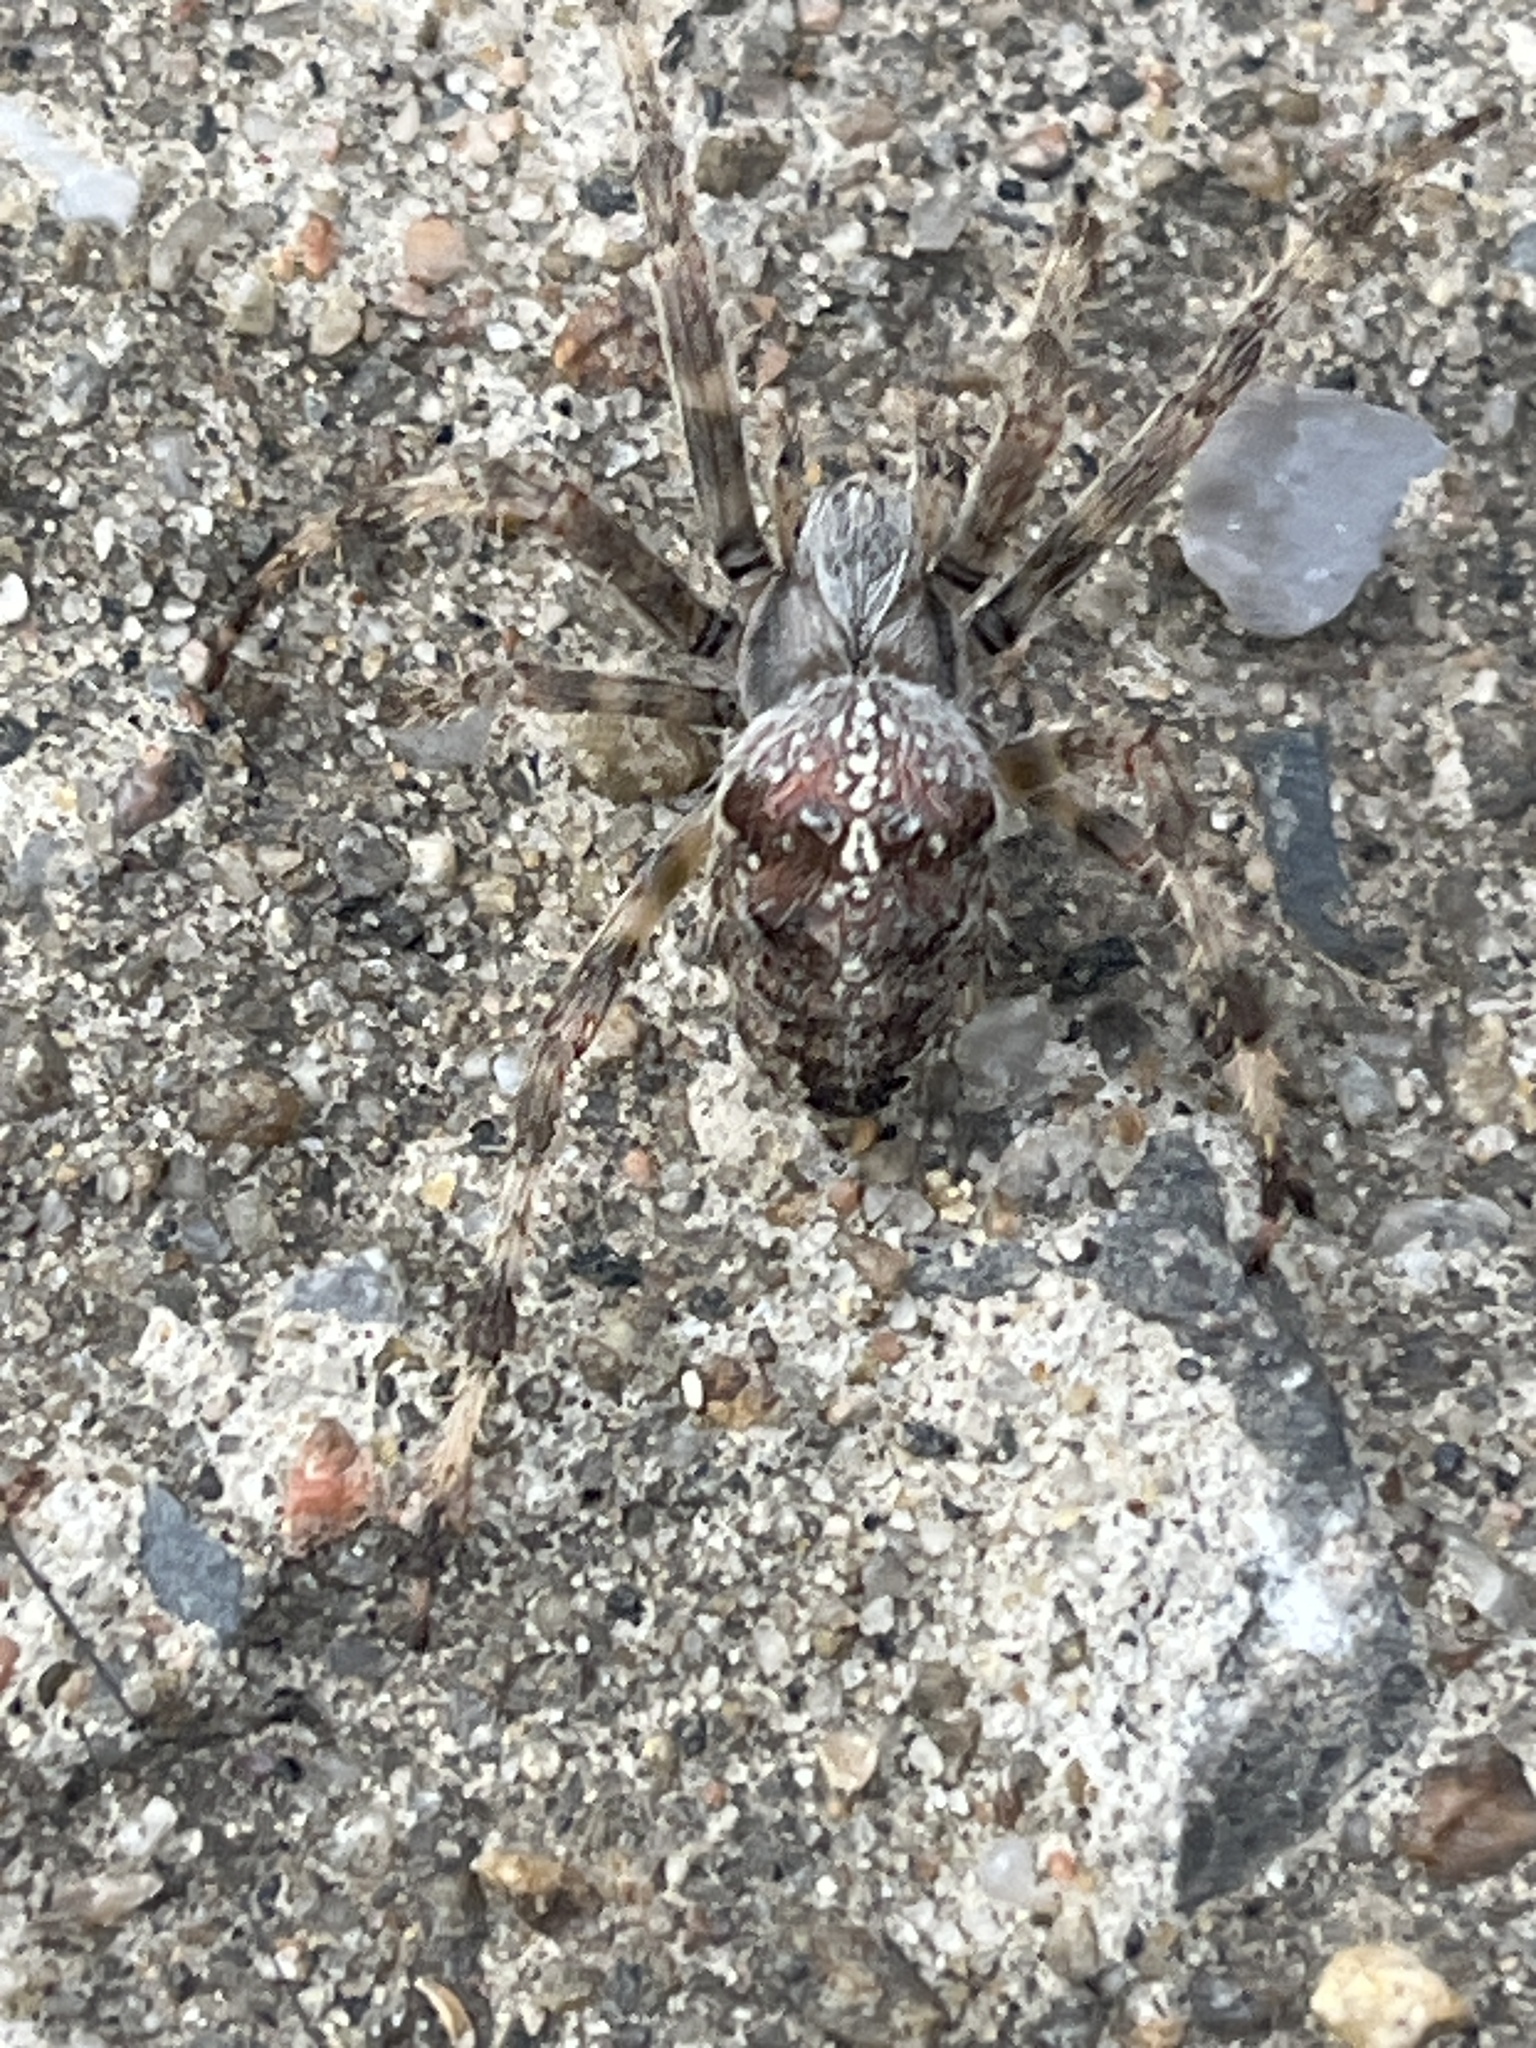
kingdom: Animalia
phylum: Arthropoda
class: Arachnida
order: Araneae
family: Araneidae
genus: Araneus
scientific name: Araneus diadematus
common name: Cross orbweaver
